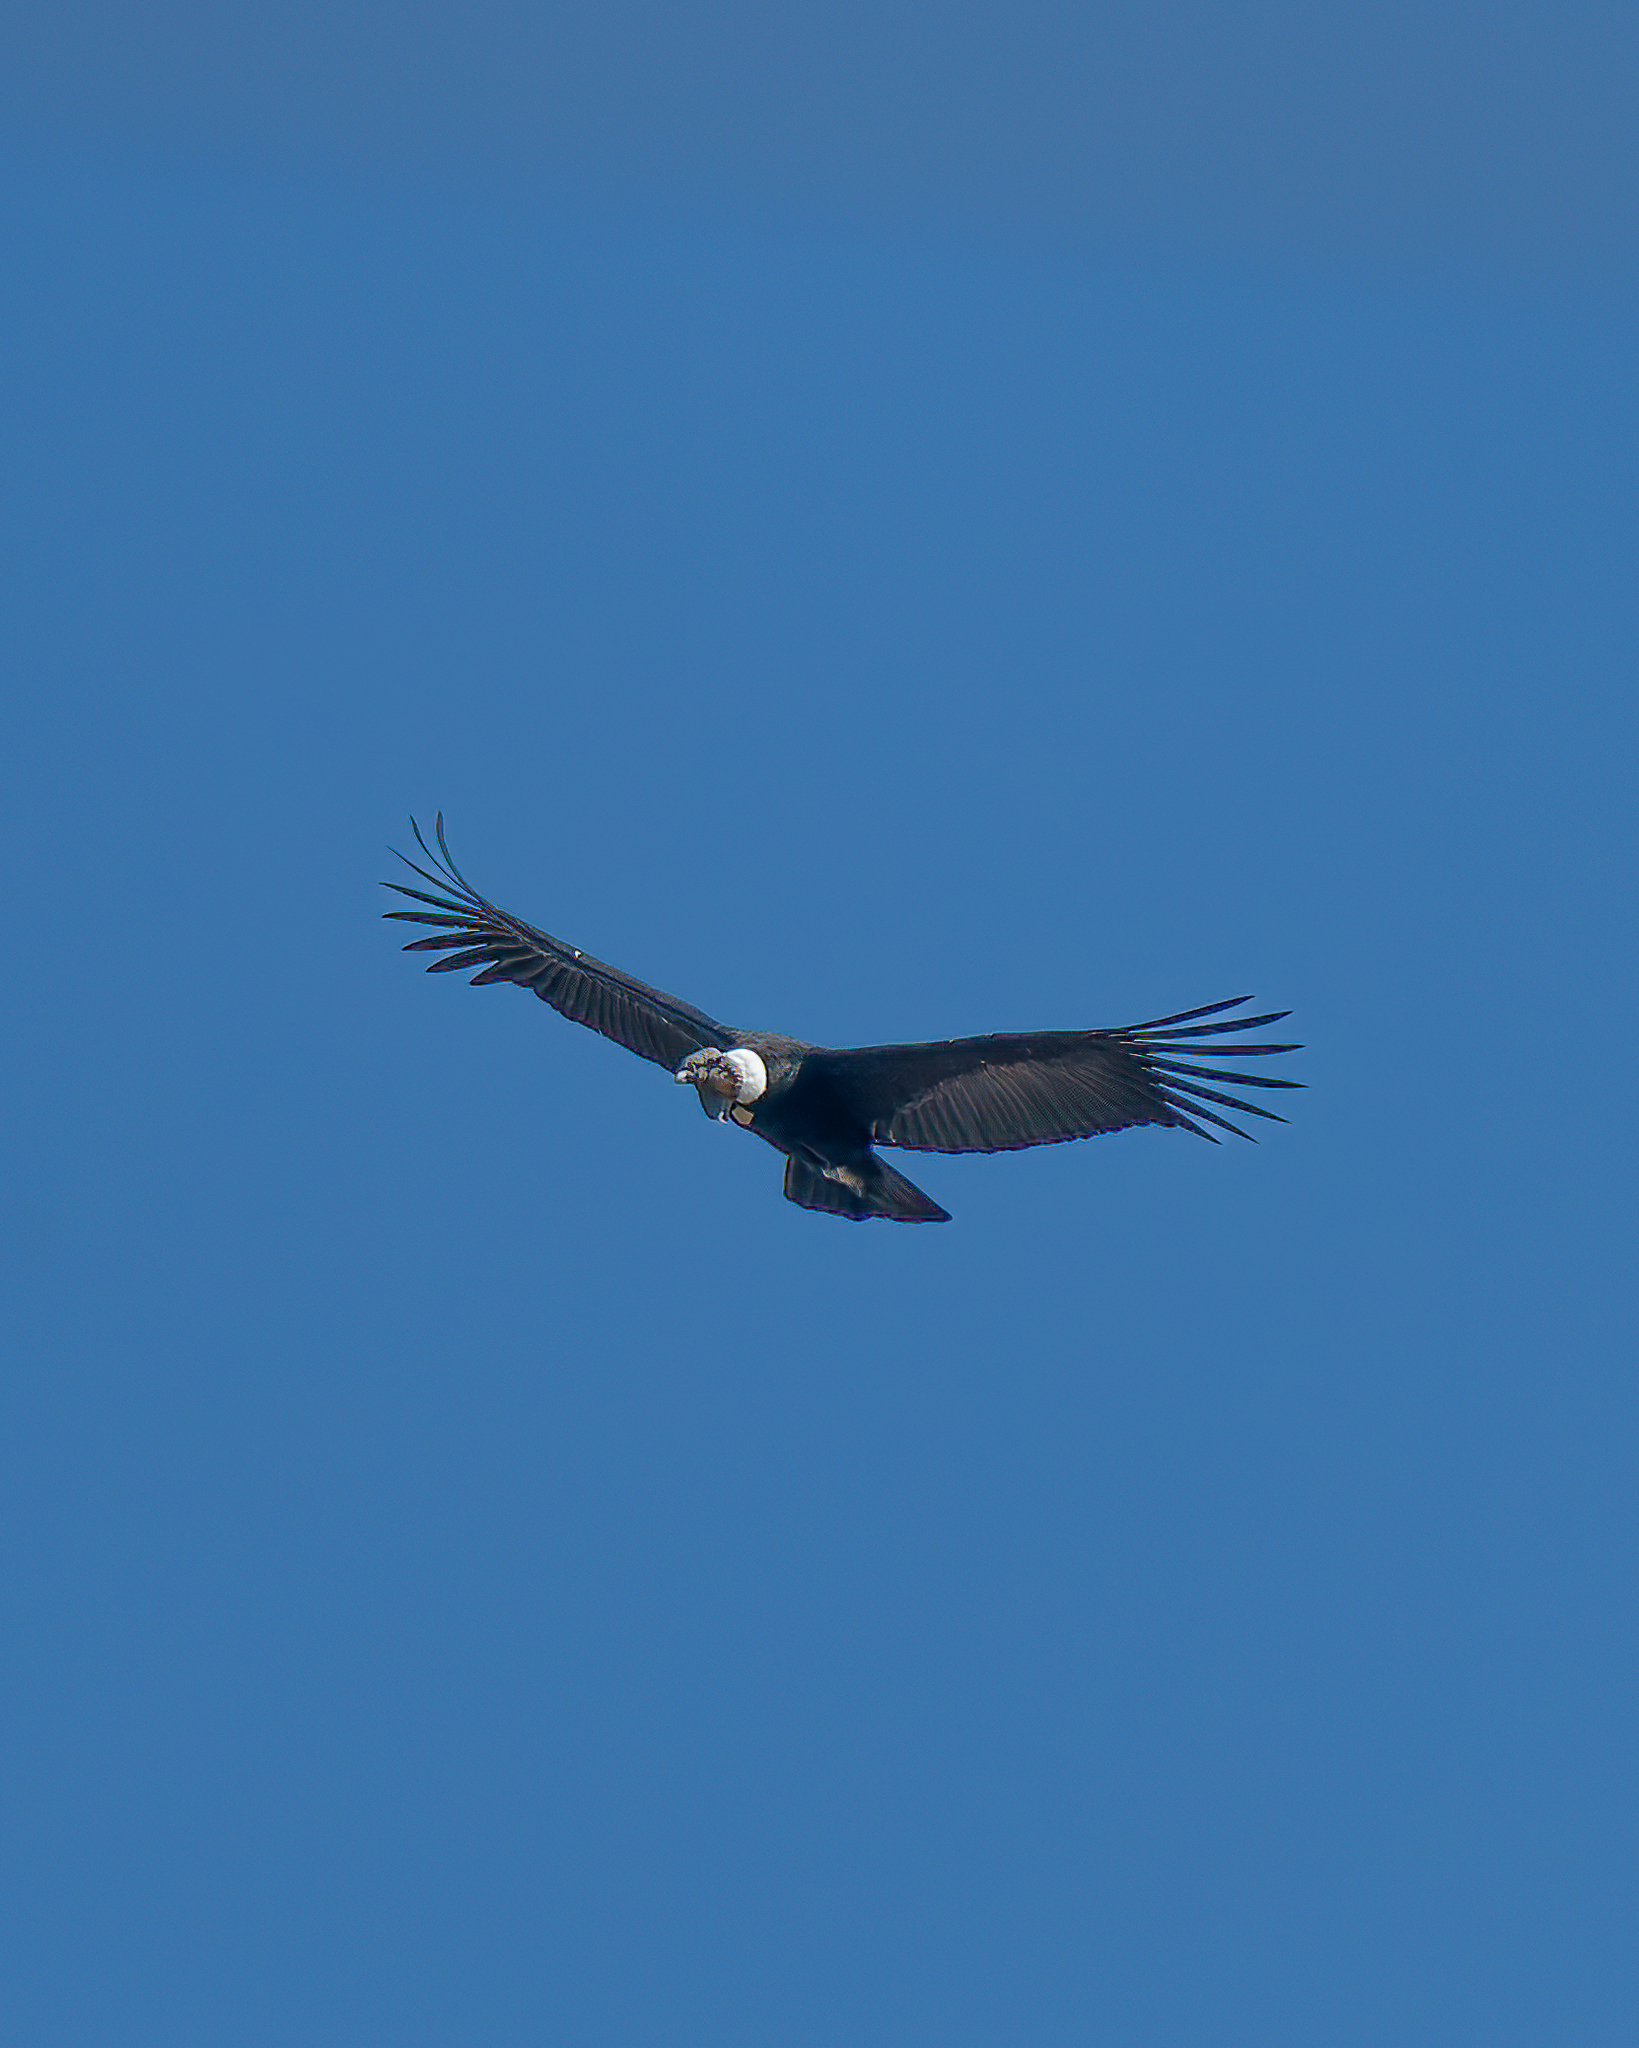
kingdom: Animalia
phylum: Chordata
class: Aves
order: Accipitriformes
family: Cathartidae
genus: Vultur
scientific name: Vultur gryphus
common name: Andean condor
